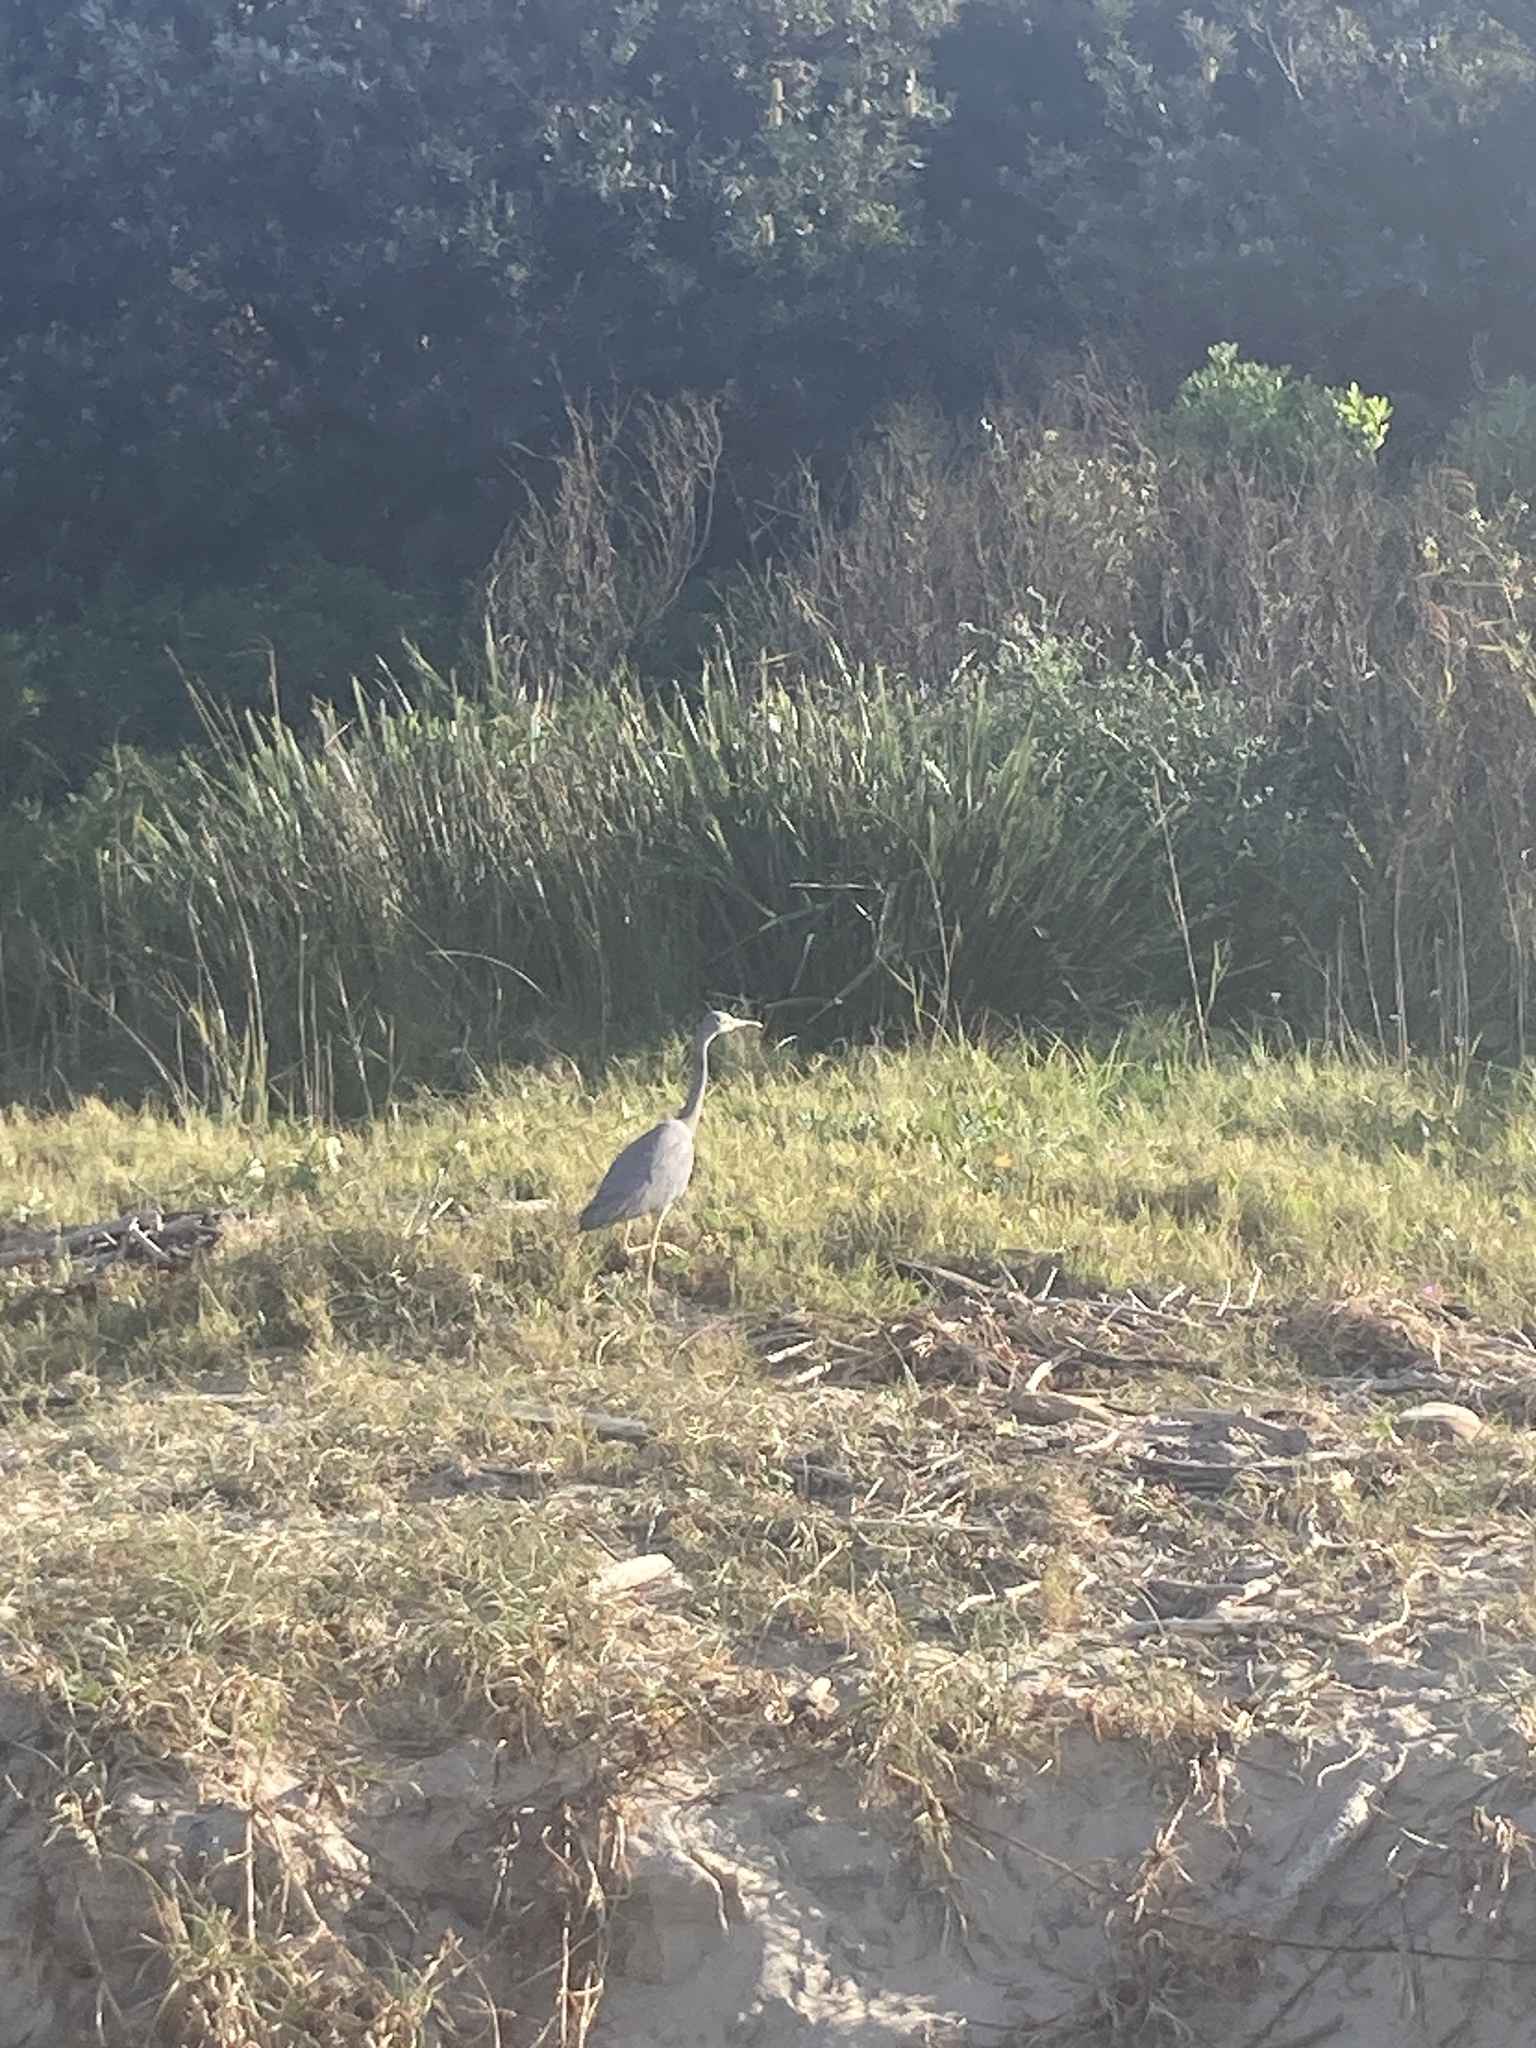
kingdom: Animalia
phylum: Chordata
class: Aves
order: Pelecaniformes
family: Ardeidae
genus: Egretta
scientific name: Egretta novaehollandiae
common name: White-faced heron
